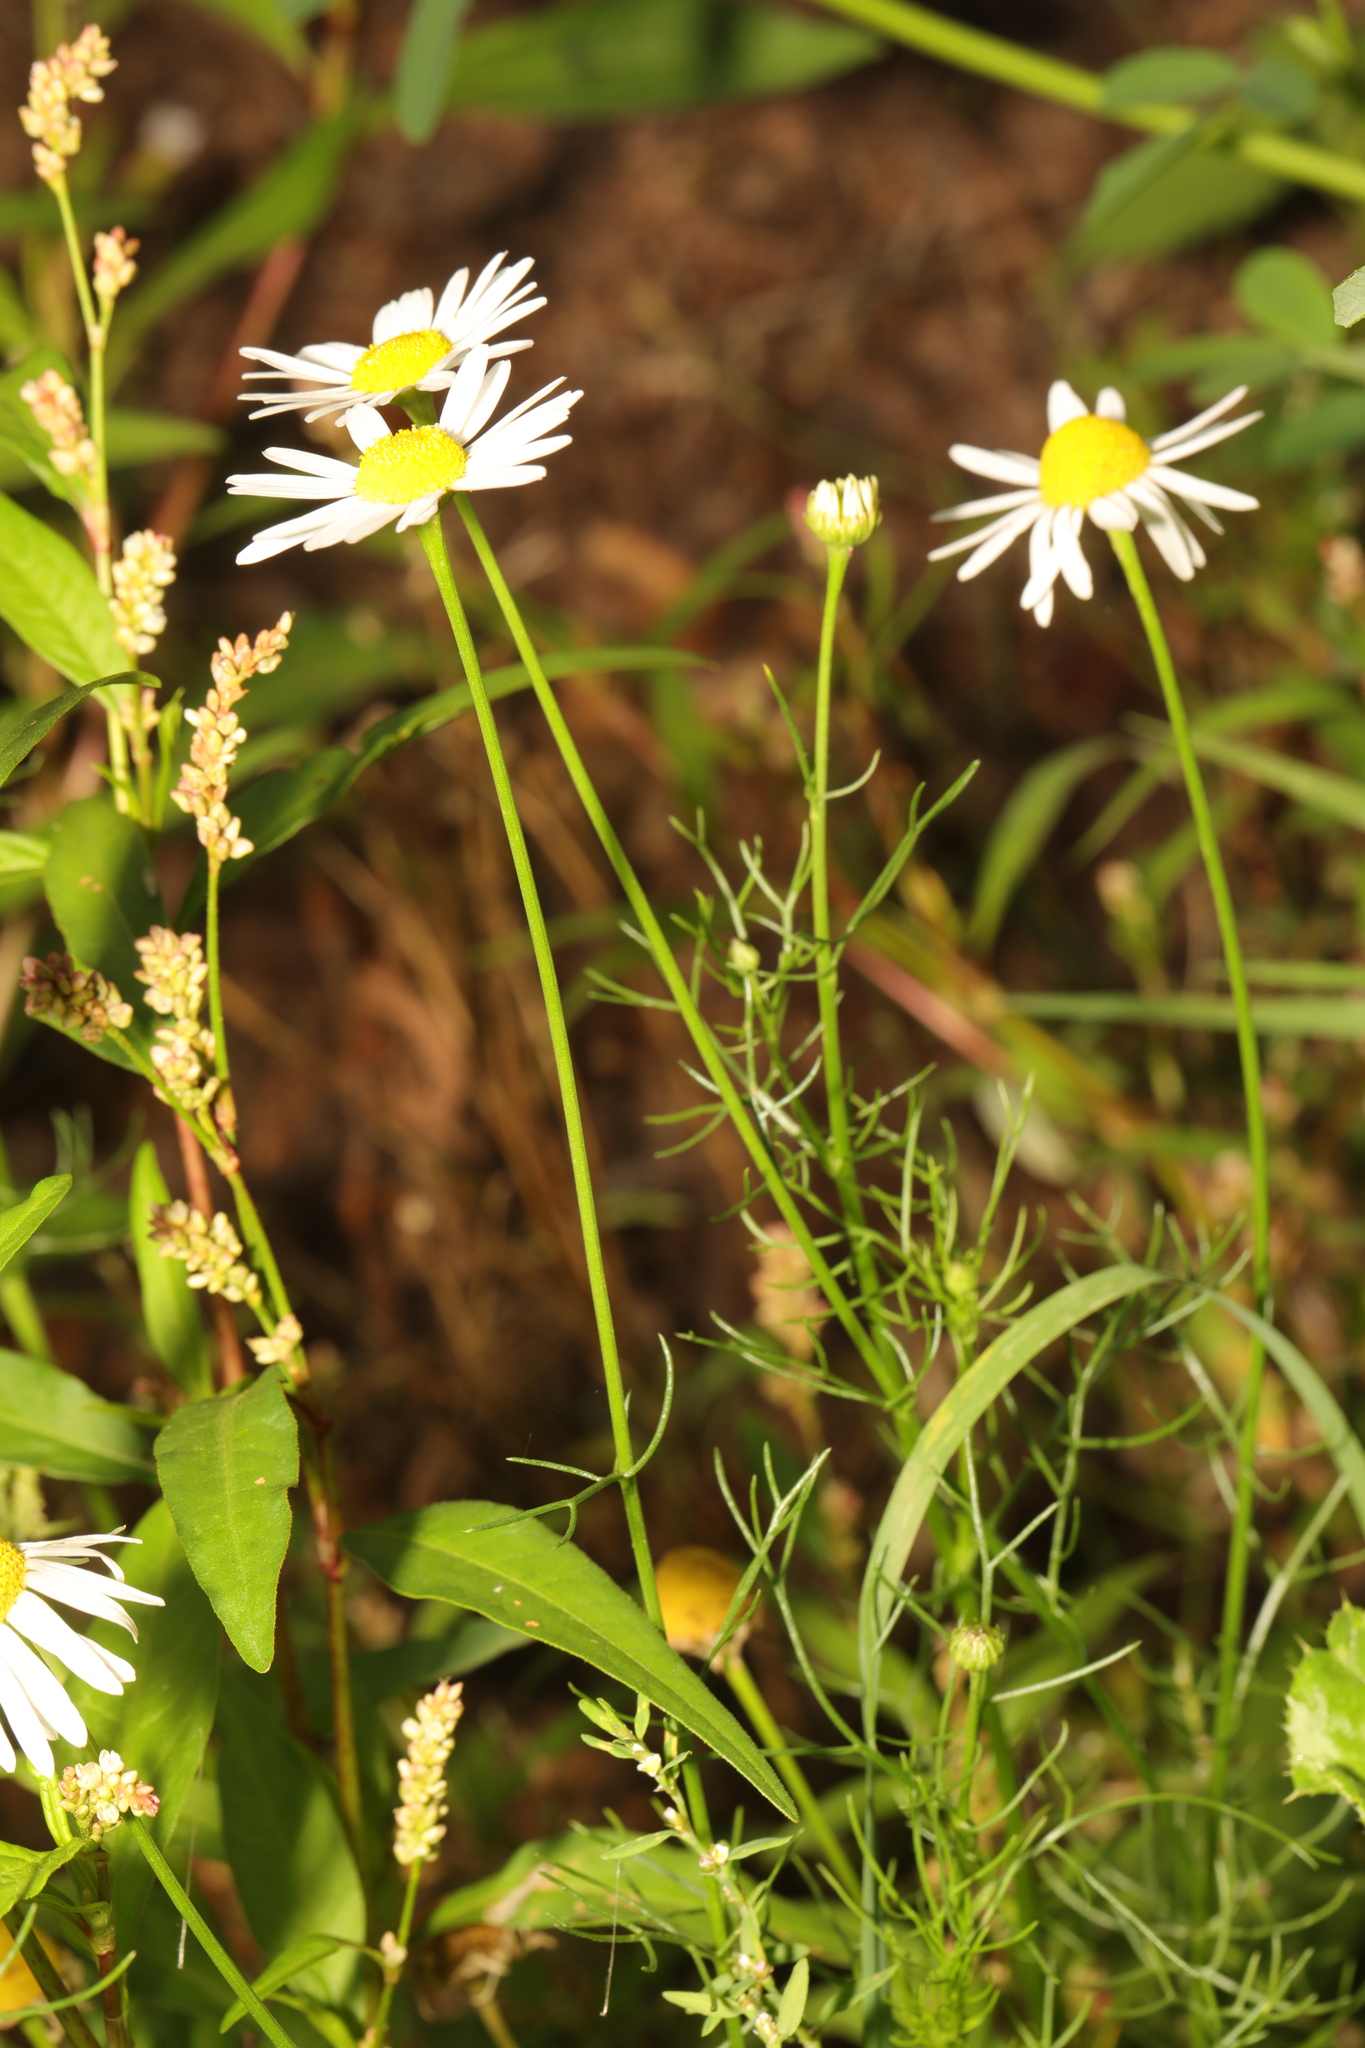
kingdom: Plantae
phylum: Tracheophyta
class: Magnoliopsida
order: Asterales
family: Asteraceae
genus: Tripleurospermum
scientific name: Tripleurospermum inodorum
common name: Scentless mayweed
